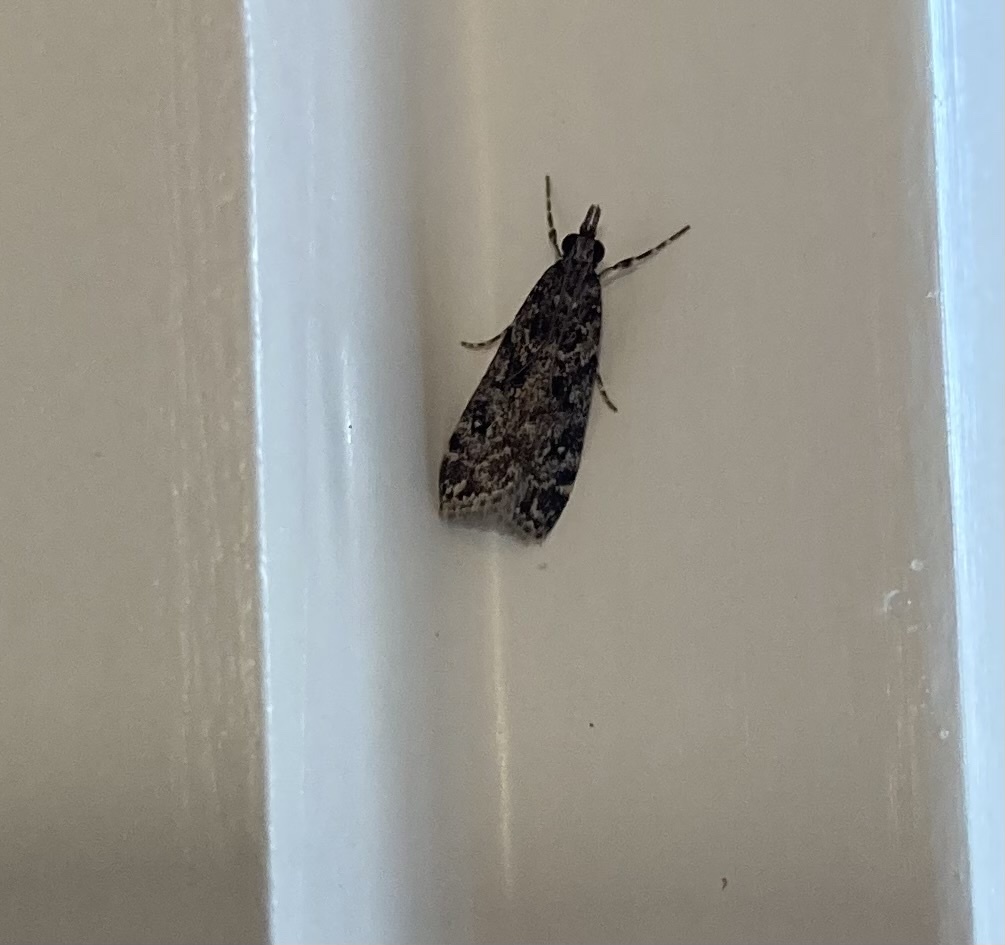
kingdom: Animalia
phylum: Arthropoda
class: Insecta
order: Lepidoptera
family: Crambidae
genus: Eudonia
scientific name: Eudonia philerga
